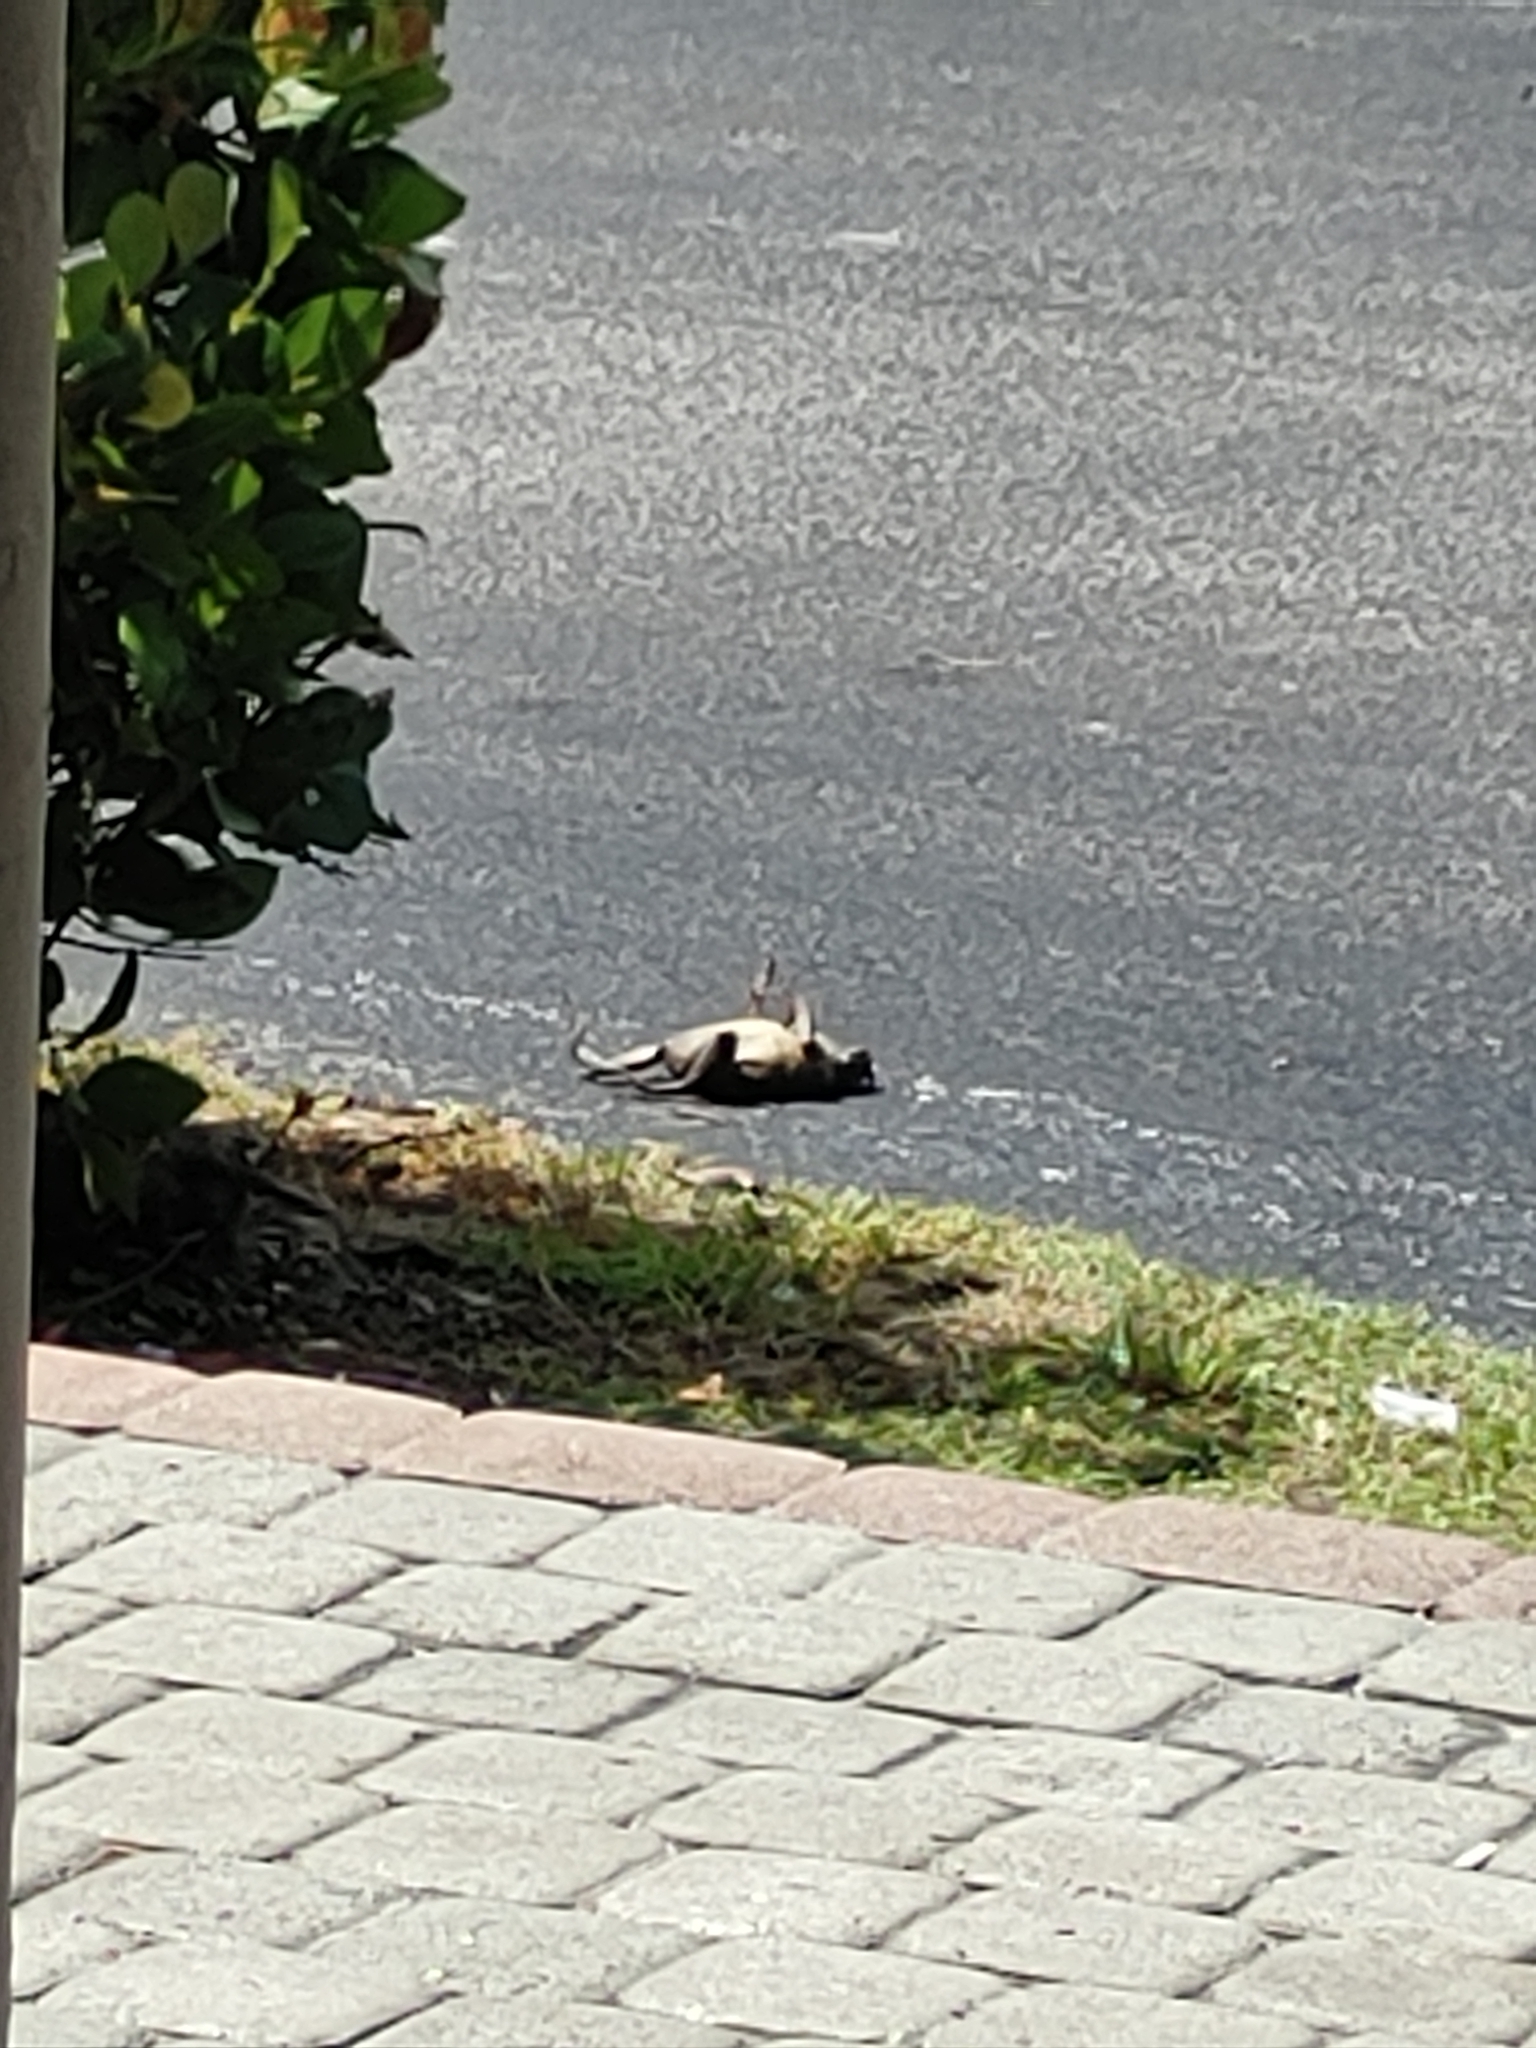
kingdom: Animalia
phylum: Chordata
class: Amphibia
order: Anura
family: Bufonidae
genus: Rhinella
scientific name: Rhinella marina
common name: Cane toad
